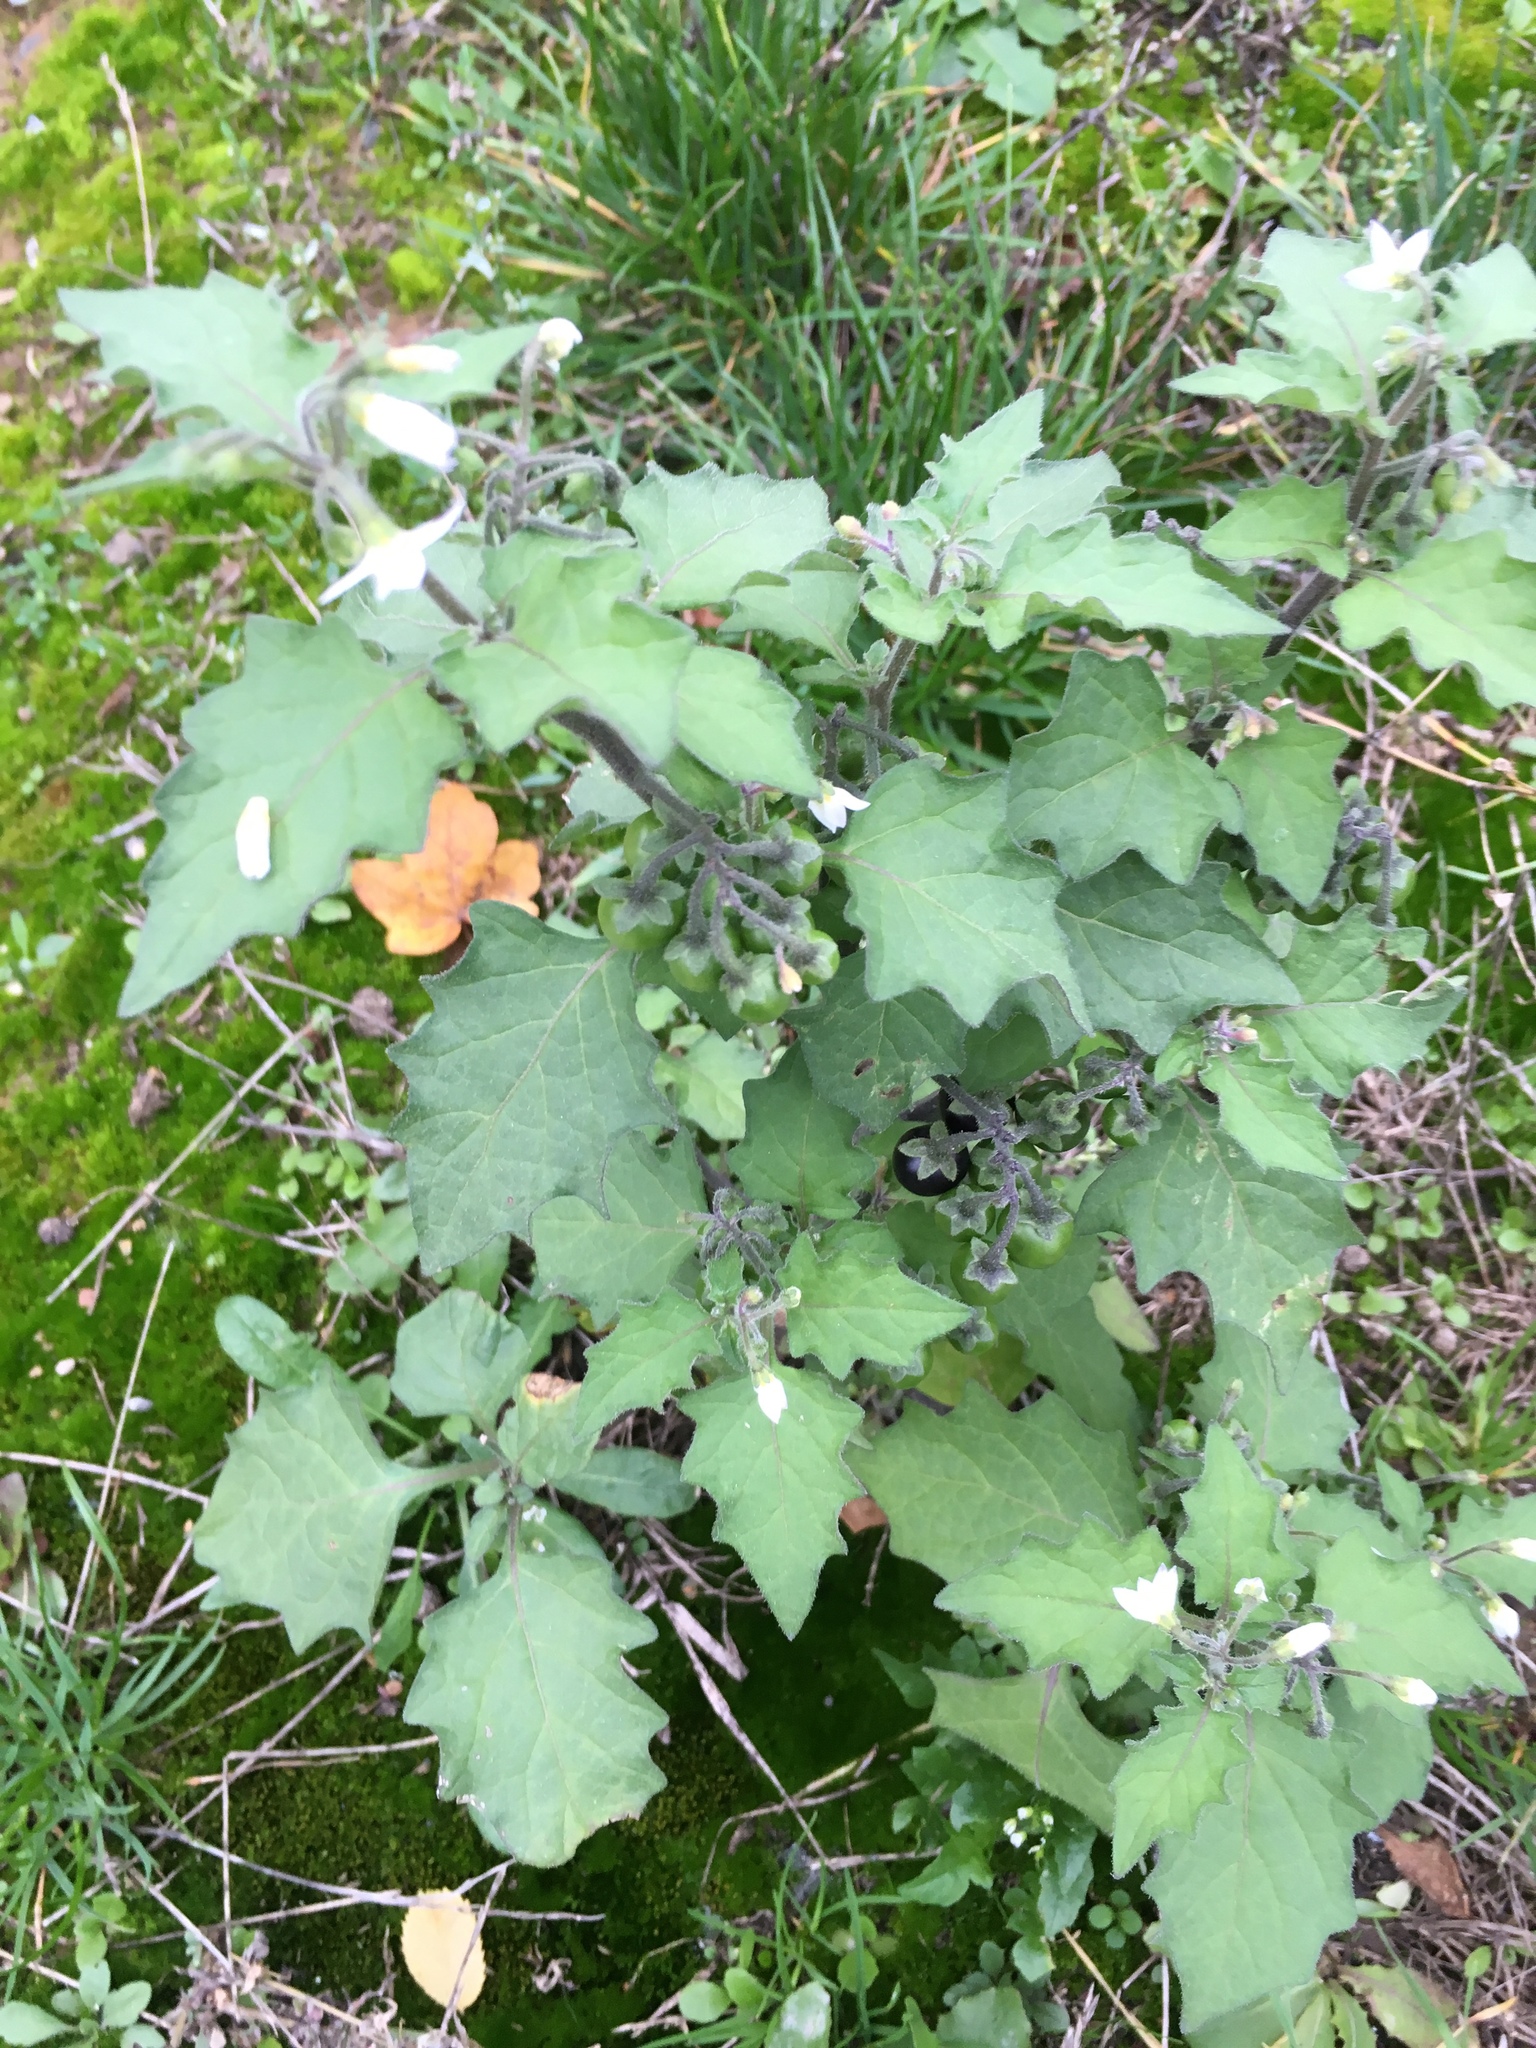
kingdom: Plantae
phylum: Tracheophyta
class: Magnoliopsida
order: Solanales
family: Solanaceae
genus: Solanum
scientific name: Solanum nigrum
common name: Black nightshade
